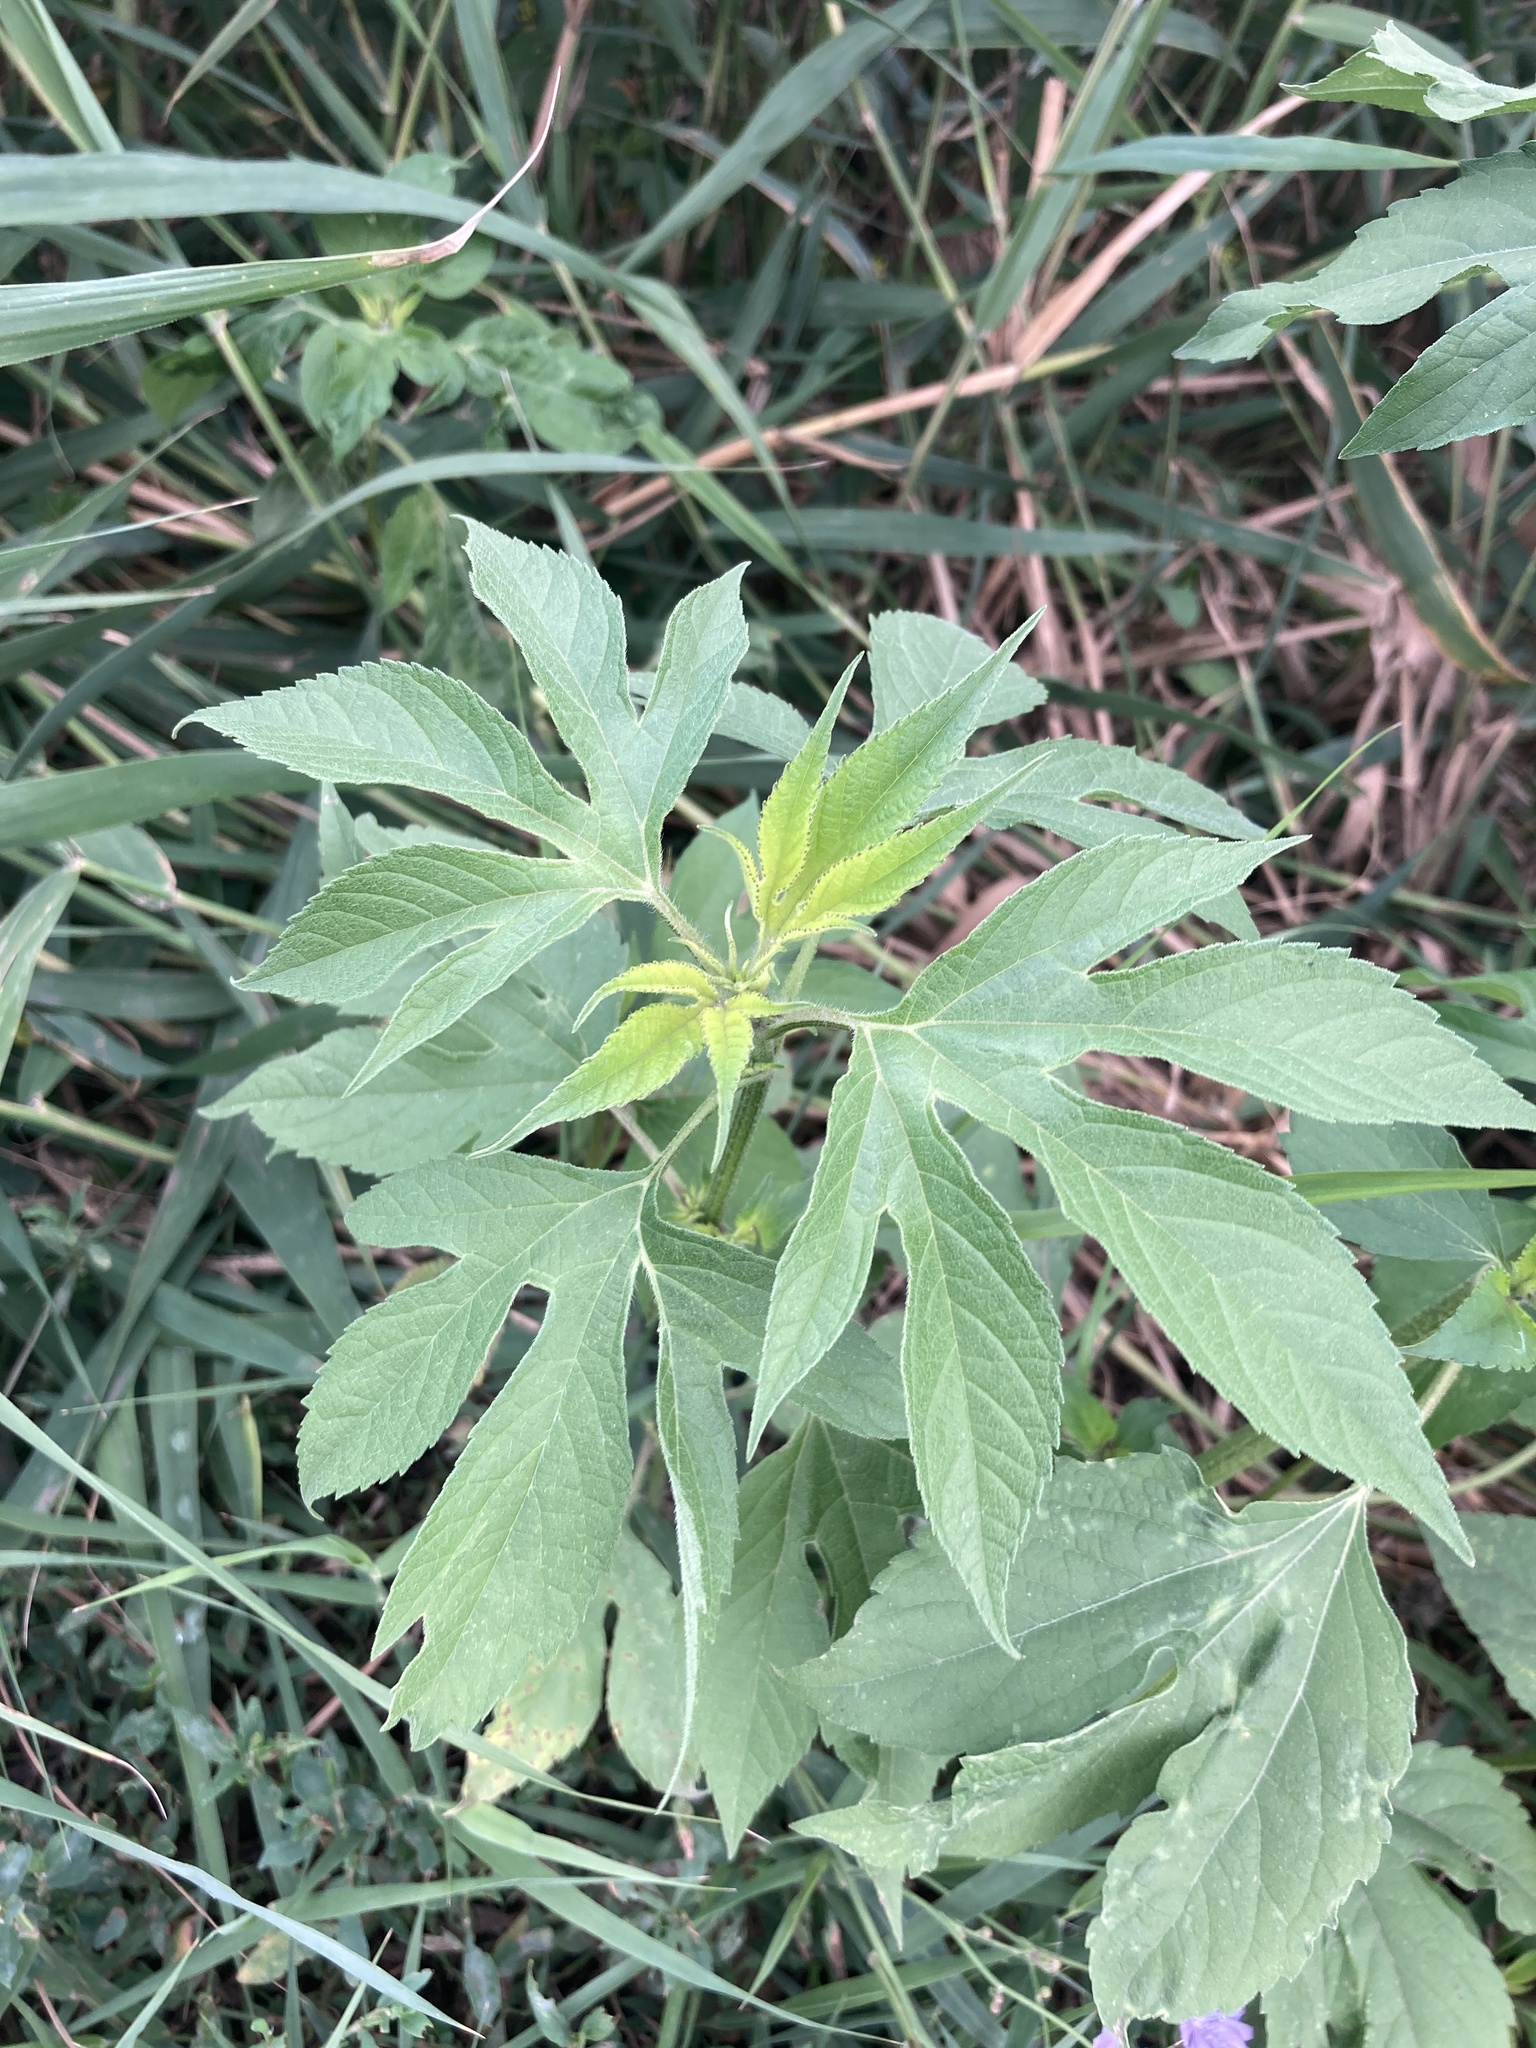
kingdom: Plantae
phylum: Tracheophyta
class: Magnoliopsida
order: Asterales
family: Asteraceae
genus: Ambrosia
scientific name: Ambrosia trifida
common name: Giant ragweed
